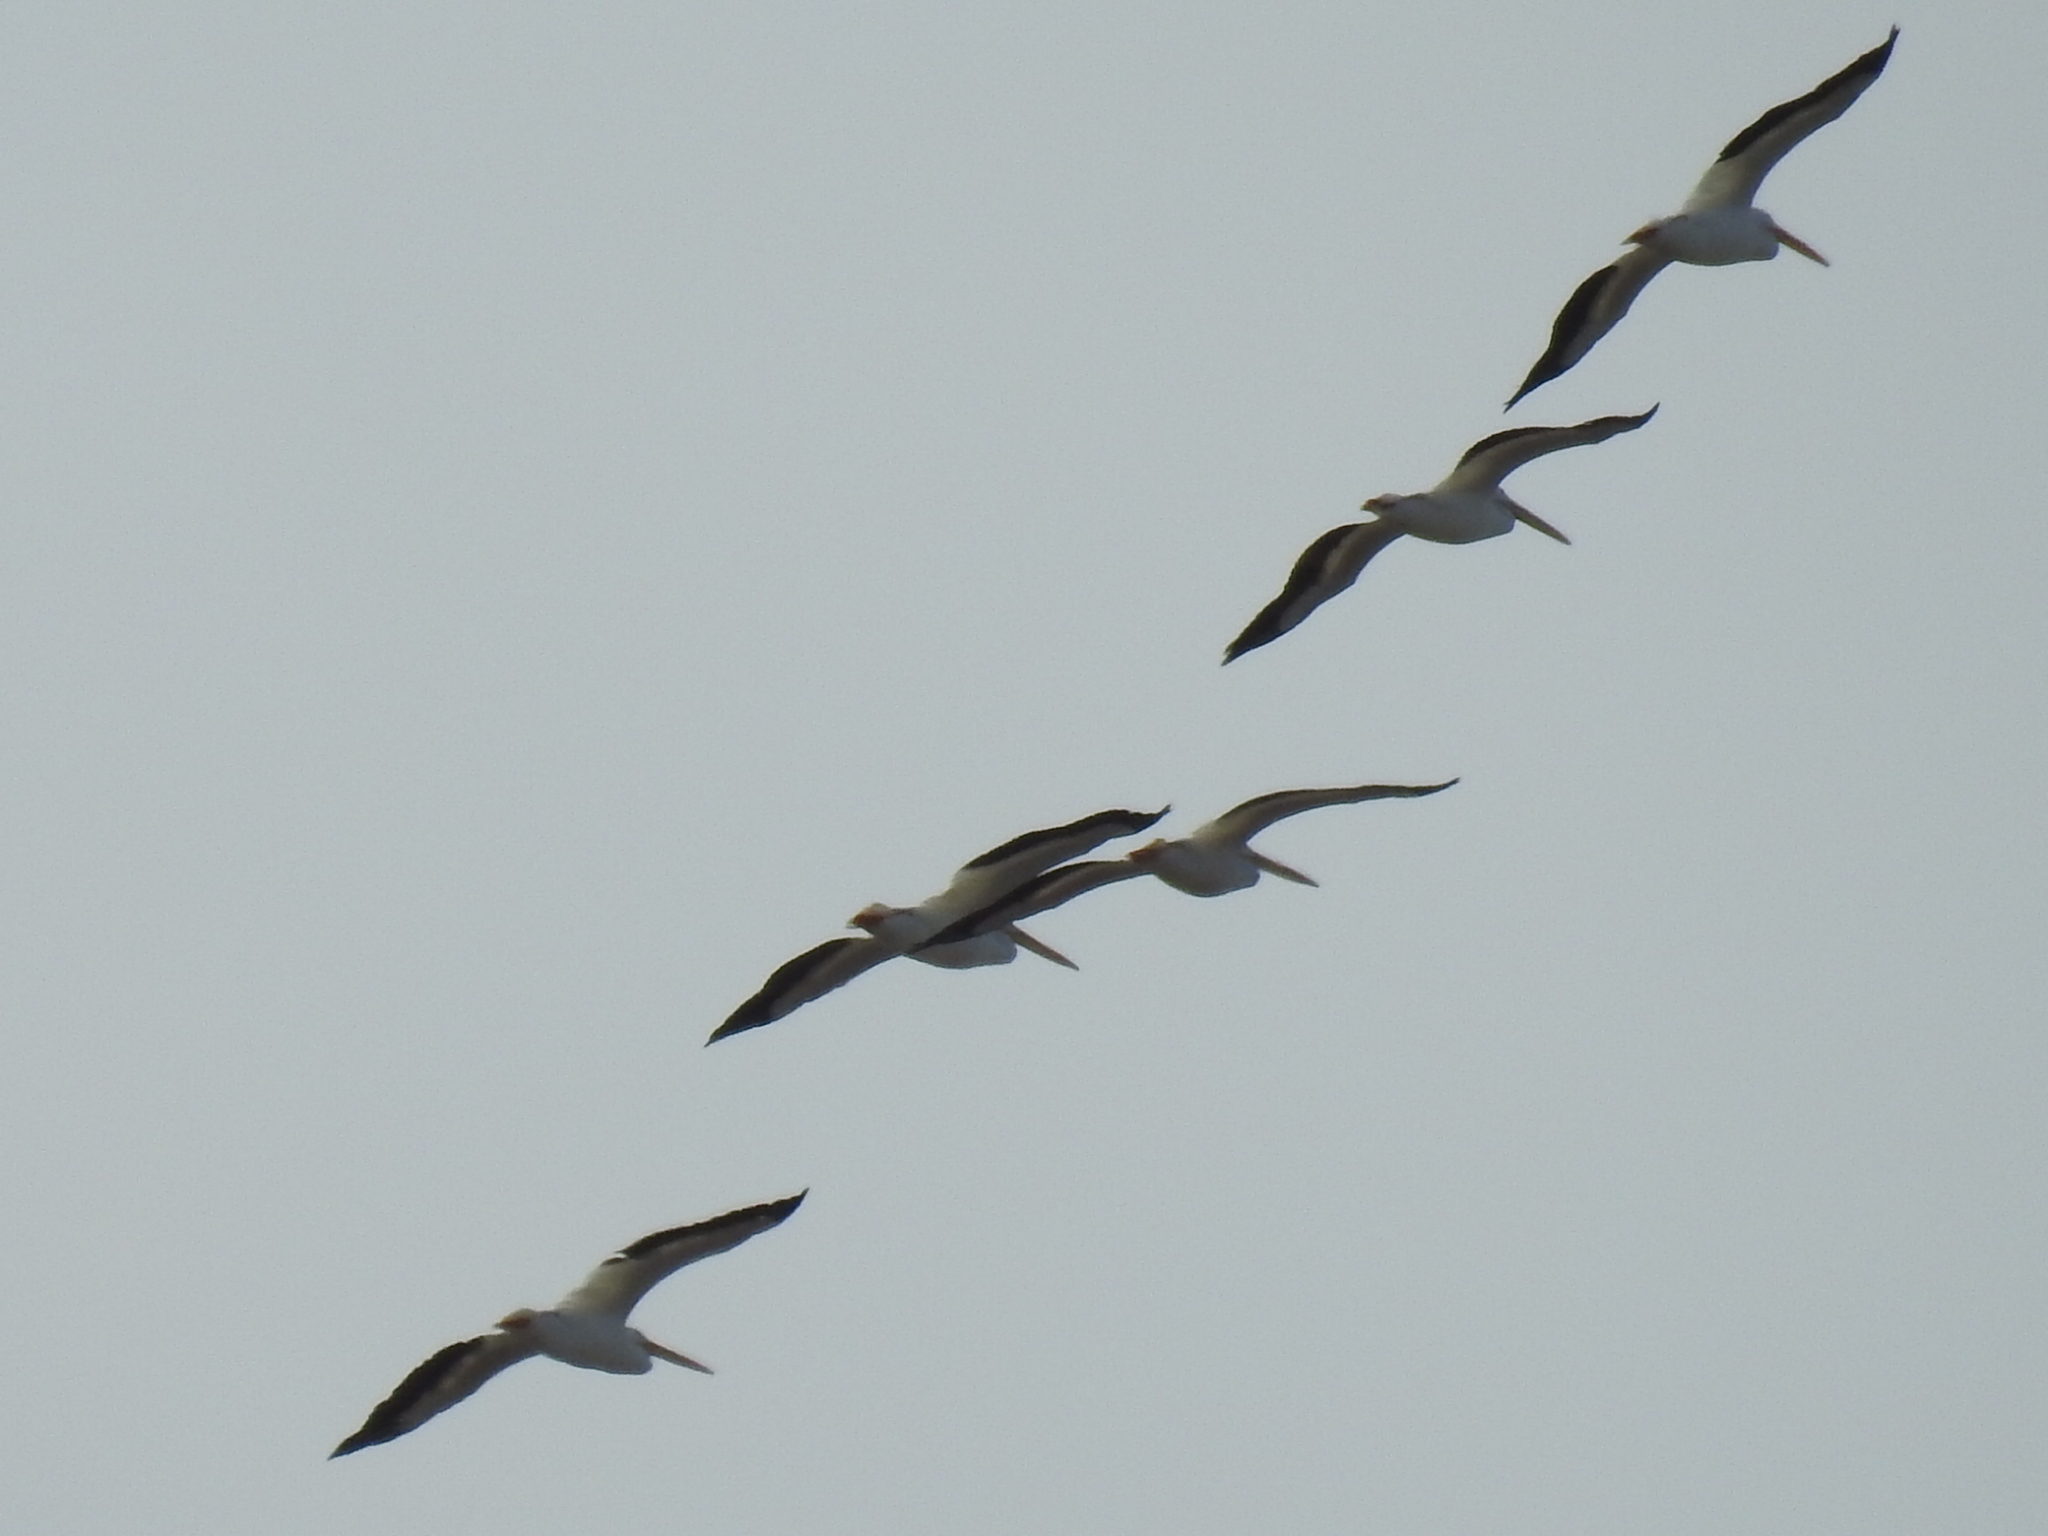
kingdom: Animalia
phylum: Chordata
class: Aves
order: Pelecaniformes
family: Pelecanidae
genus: Pelecanus
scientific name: Pelecanus erythrorhynchos
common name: American white pelican
